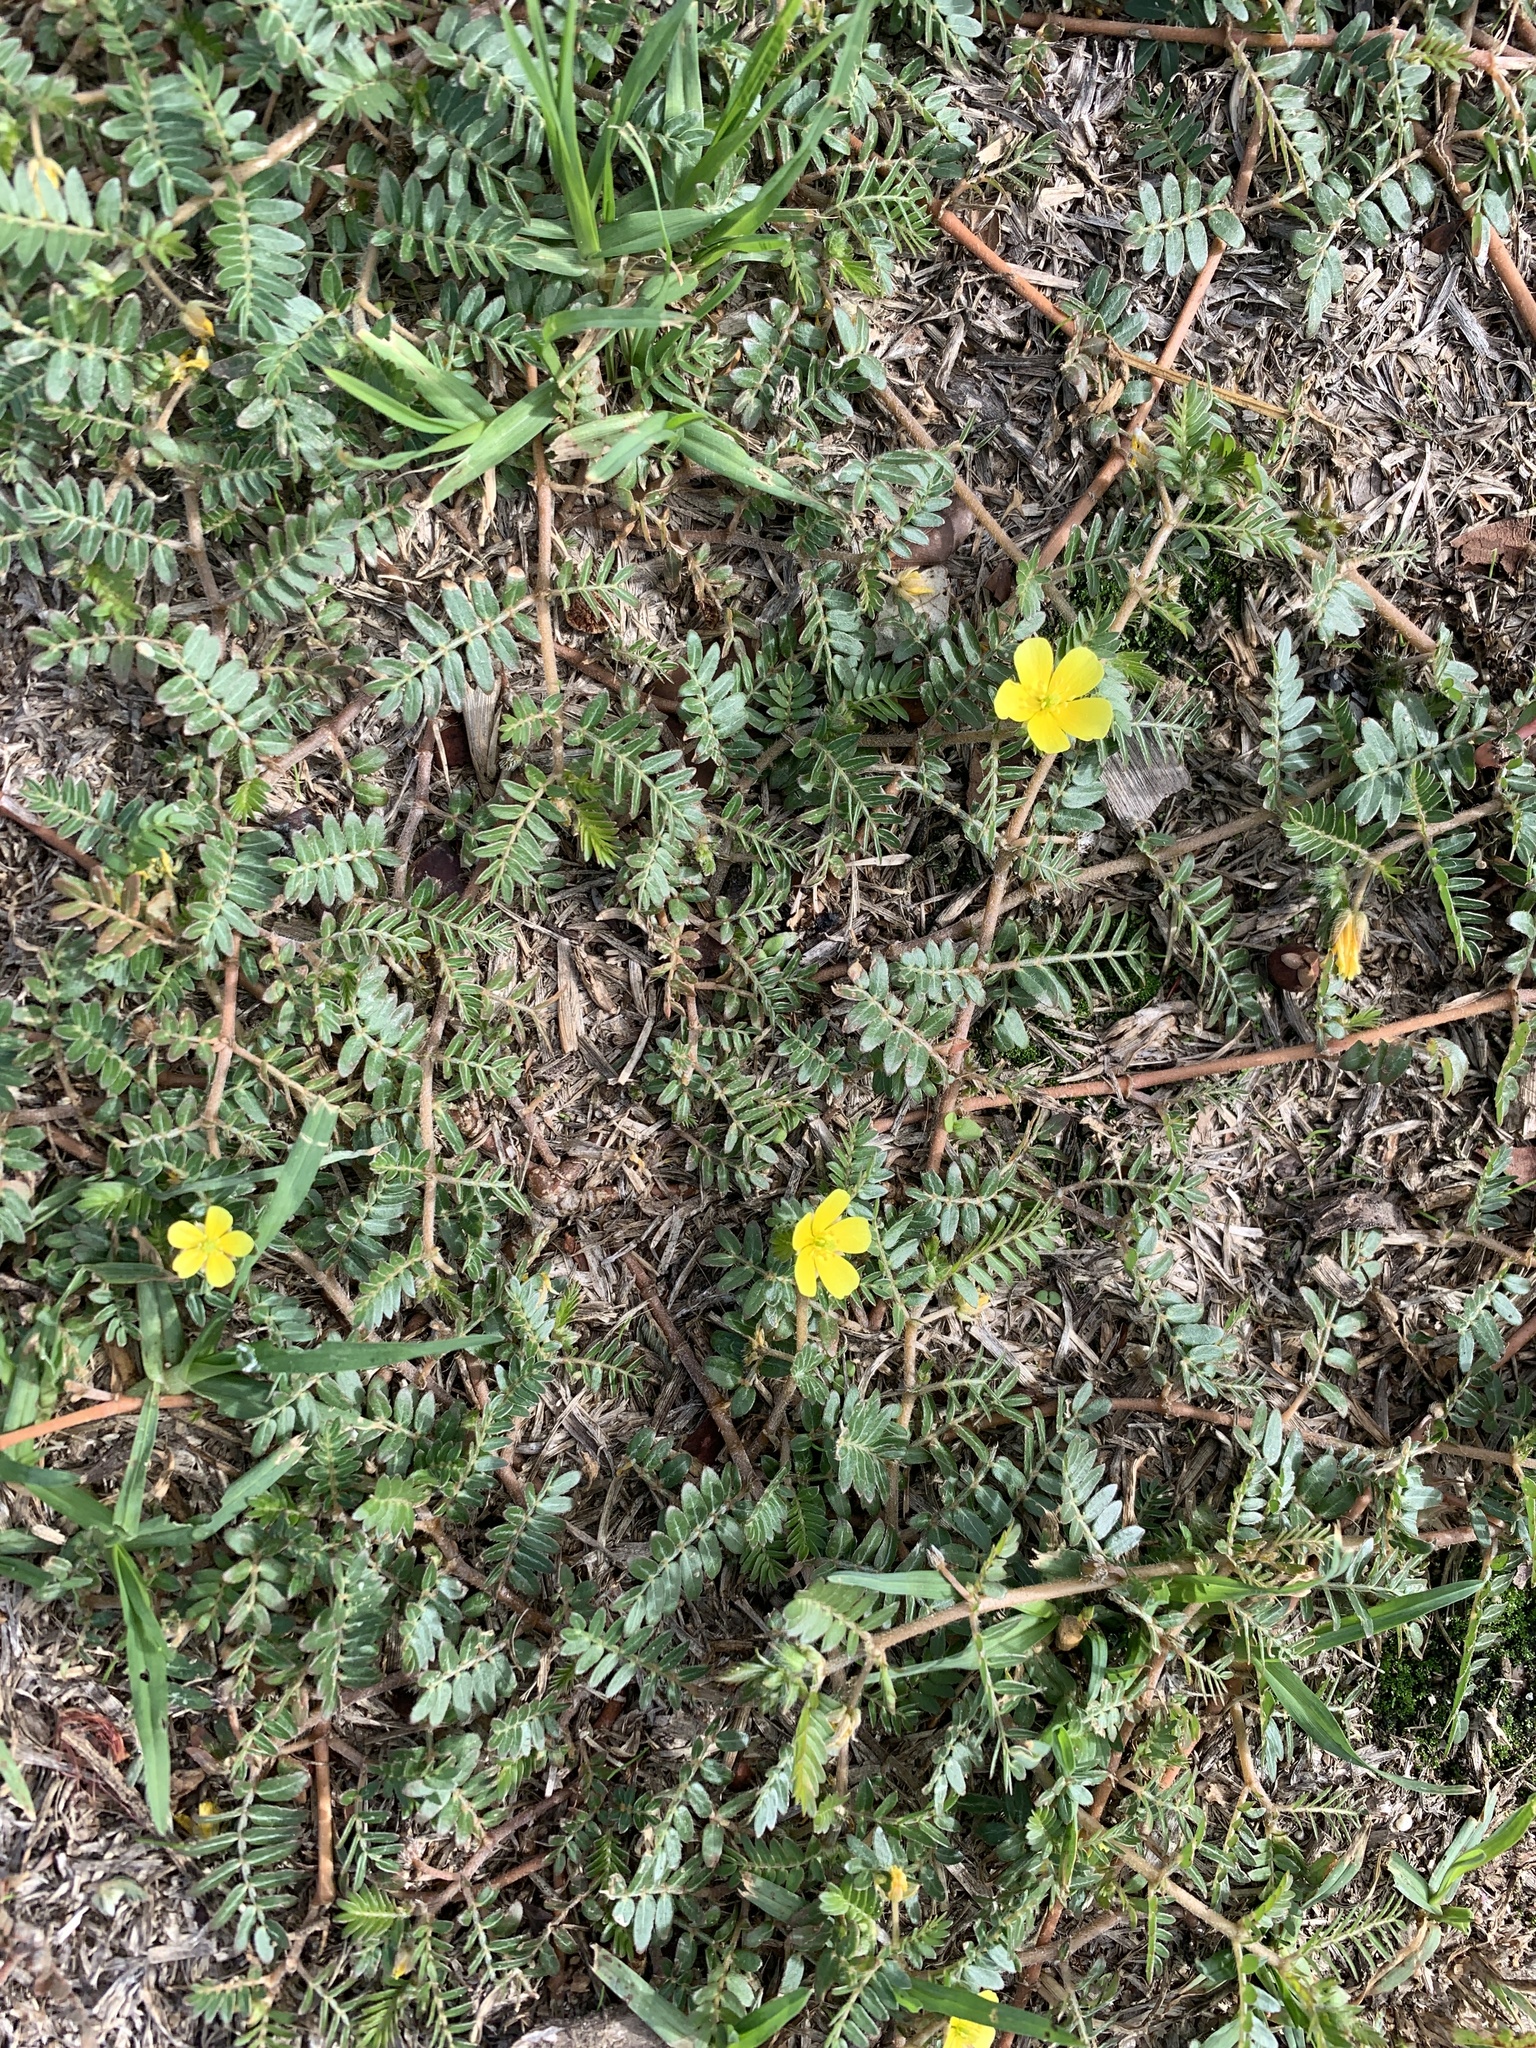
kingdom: Plantae
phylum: Tracheophyta
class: Magnoliopsida
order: Zygophyllales
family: Zygophyllaceae
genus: Tribulus
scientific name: Tribulus terrestris
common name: Puncturevine
